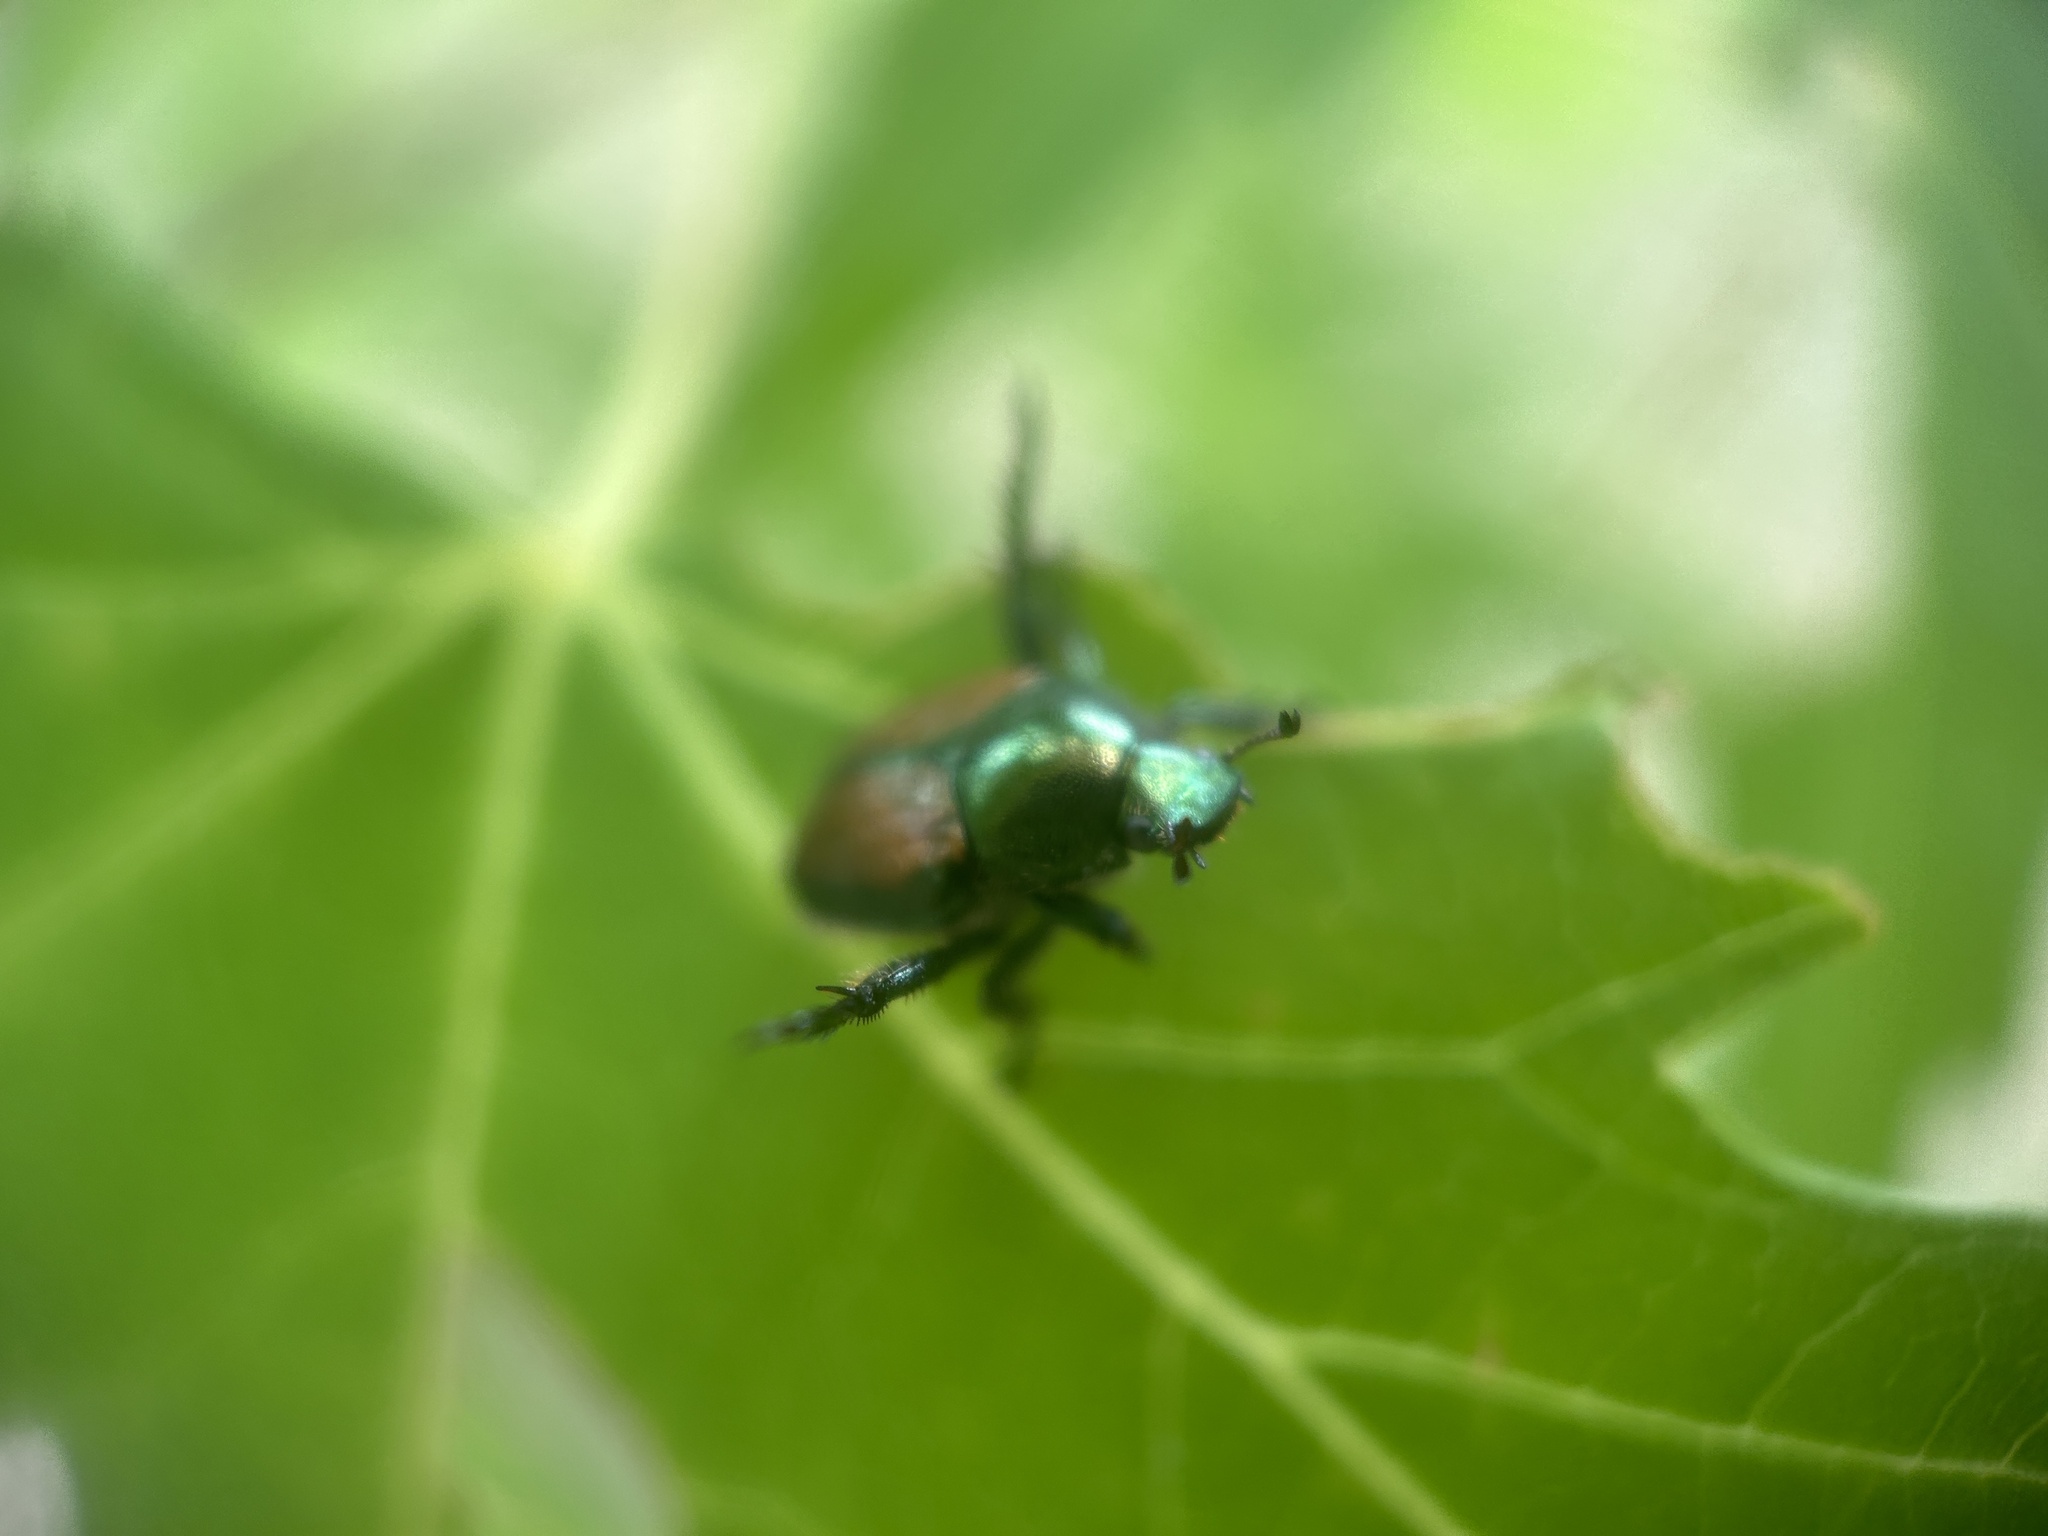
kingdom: Animalia
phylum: Arthropoda
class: Insecta
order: Coleoptera
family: Scarabaeidae
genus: Popillia
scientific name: Popillia japonica
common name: Japanese beetle
